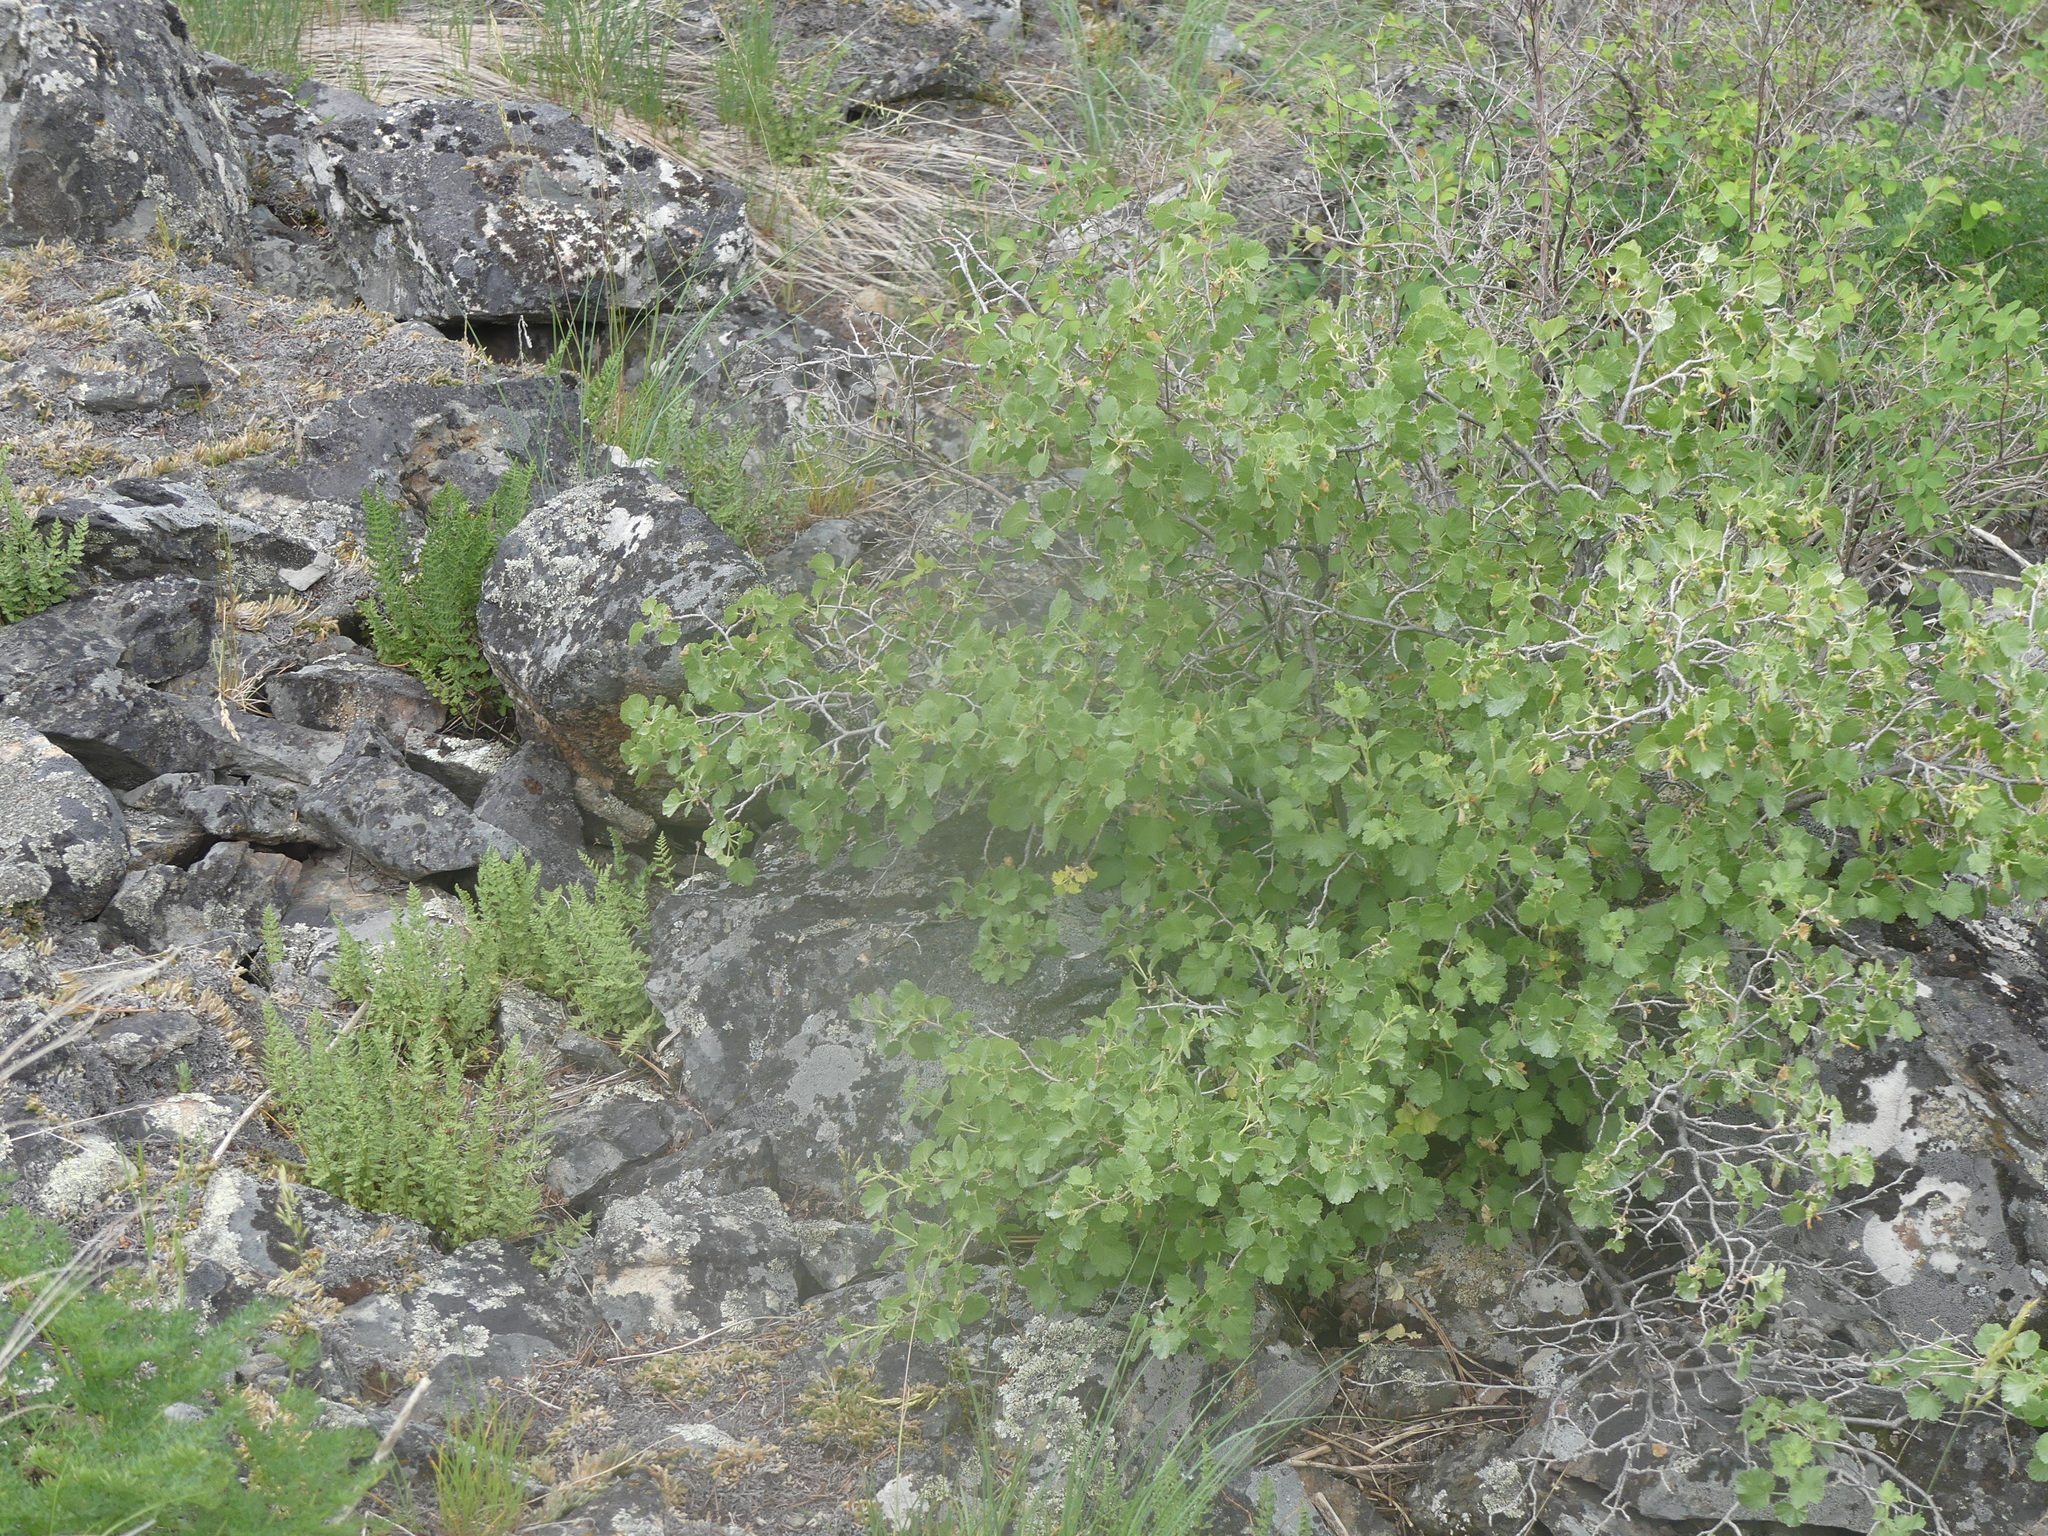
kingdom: Plantae
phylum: Tracheophyta
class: Magnoliopsida
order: Saxifragales
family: Grossulariaceae
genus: Ribes
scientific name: Ribes cereum
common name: Wax currant
